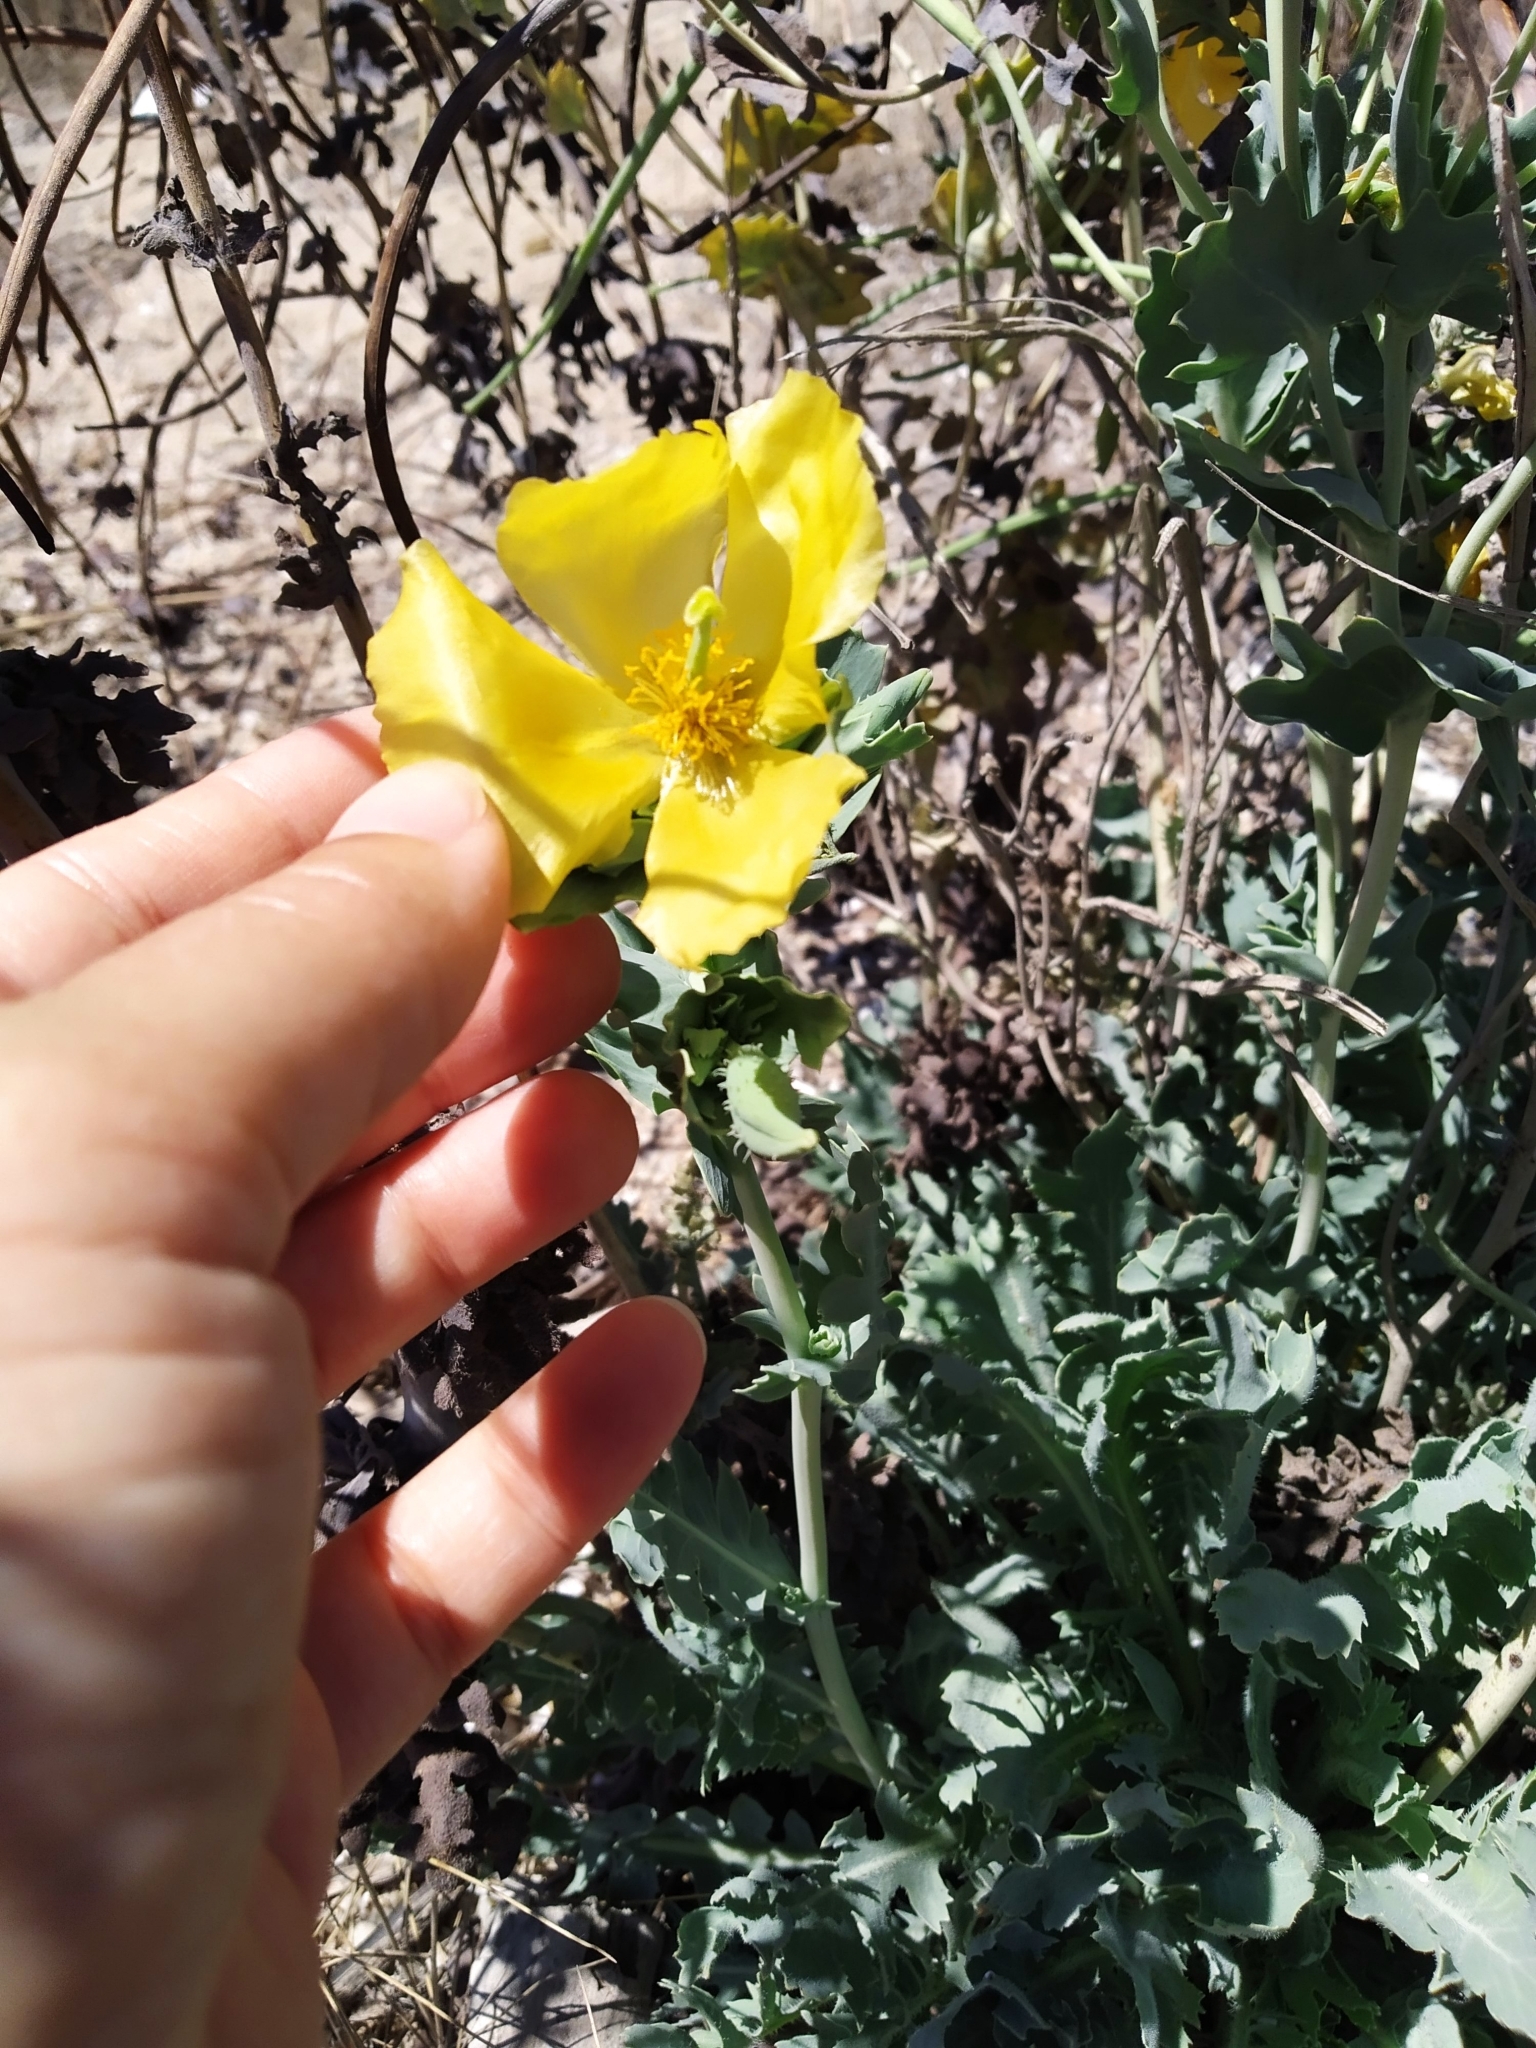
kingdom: Plantae
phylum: Tracheophyta
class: Magnoliopsida
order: Ranunculales
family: Papaveraceae
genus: Glaucium
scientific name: Glaucium flavum
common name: Yellow horned-poppy
